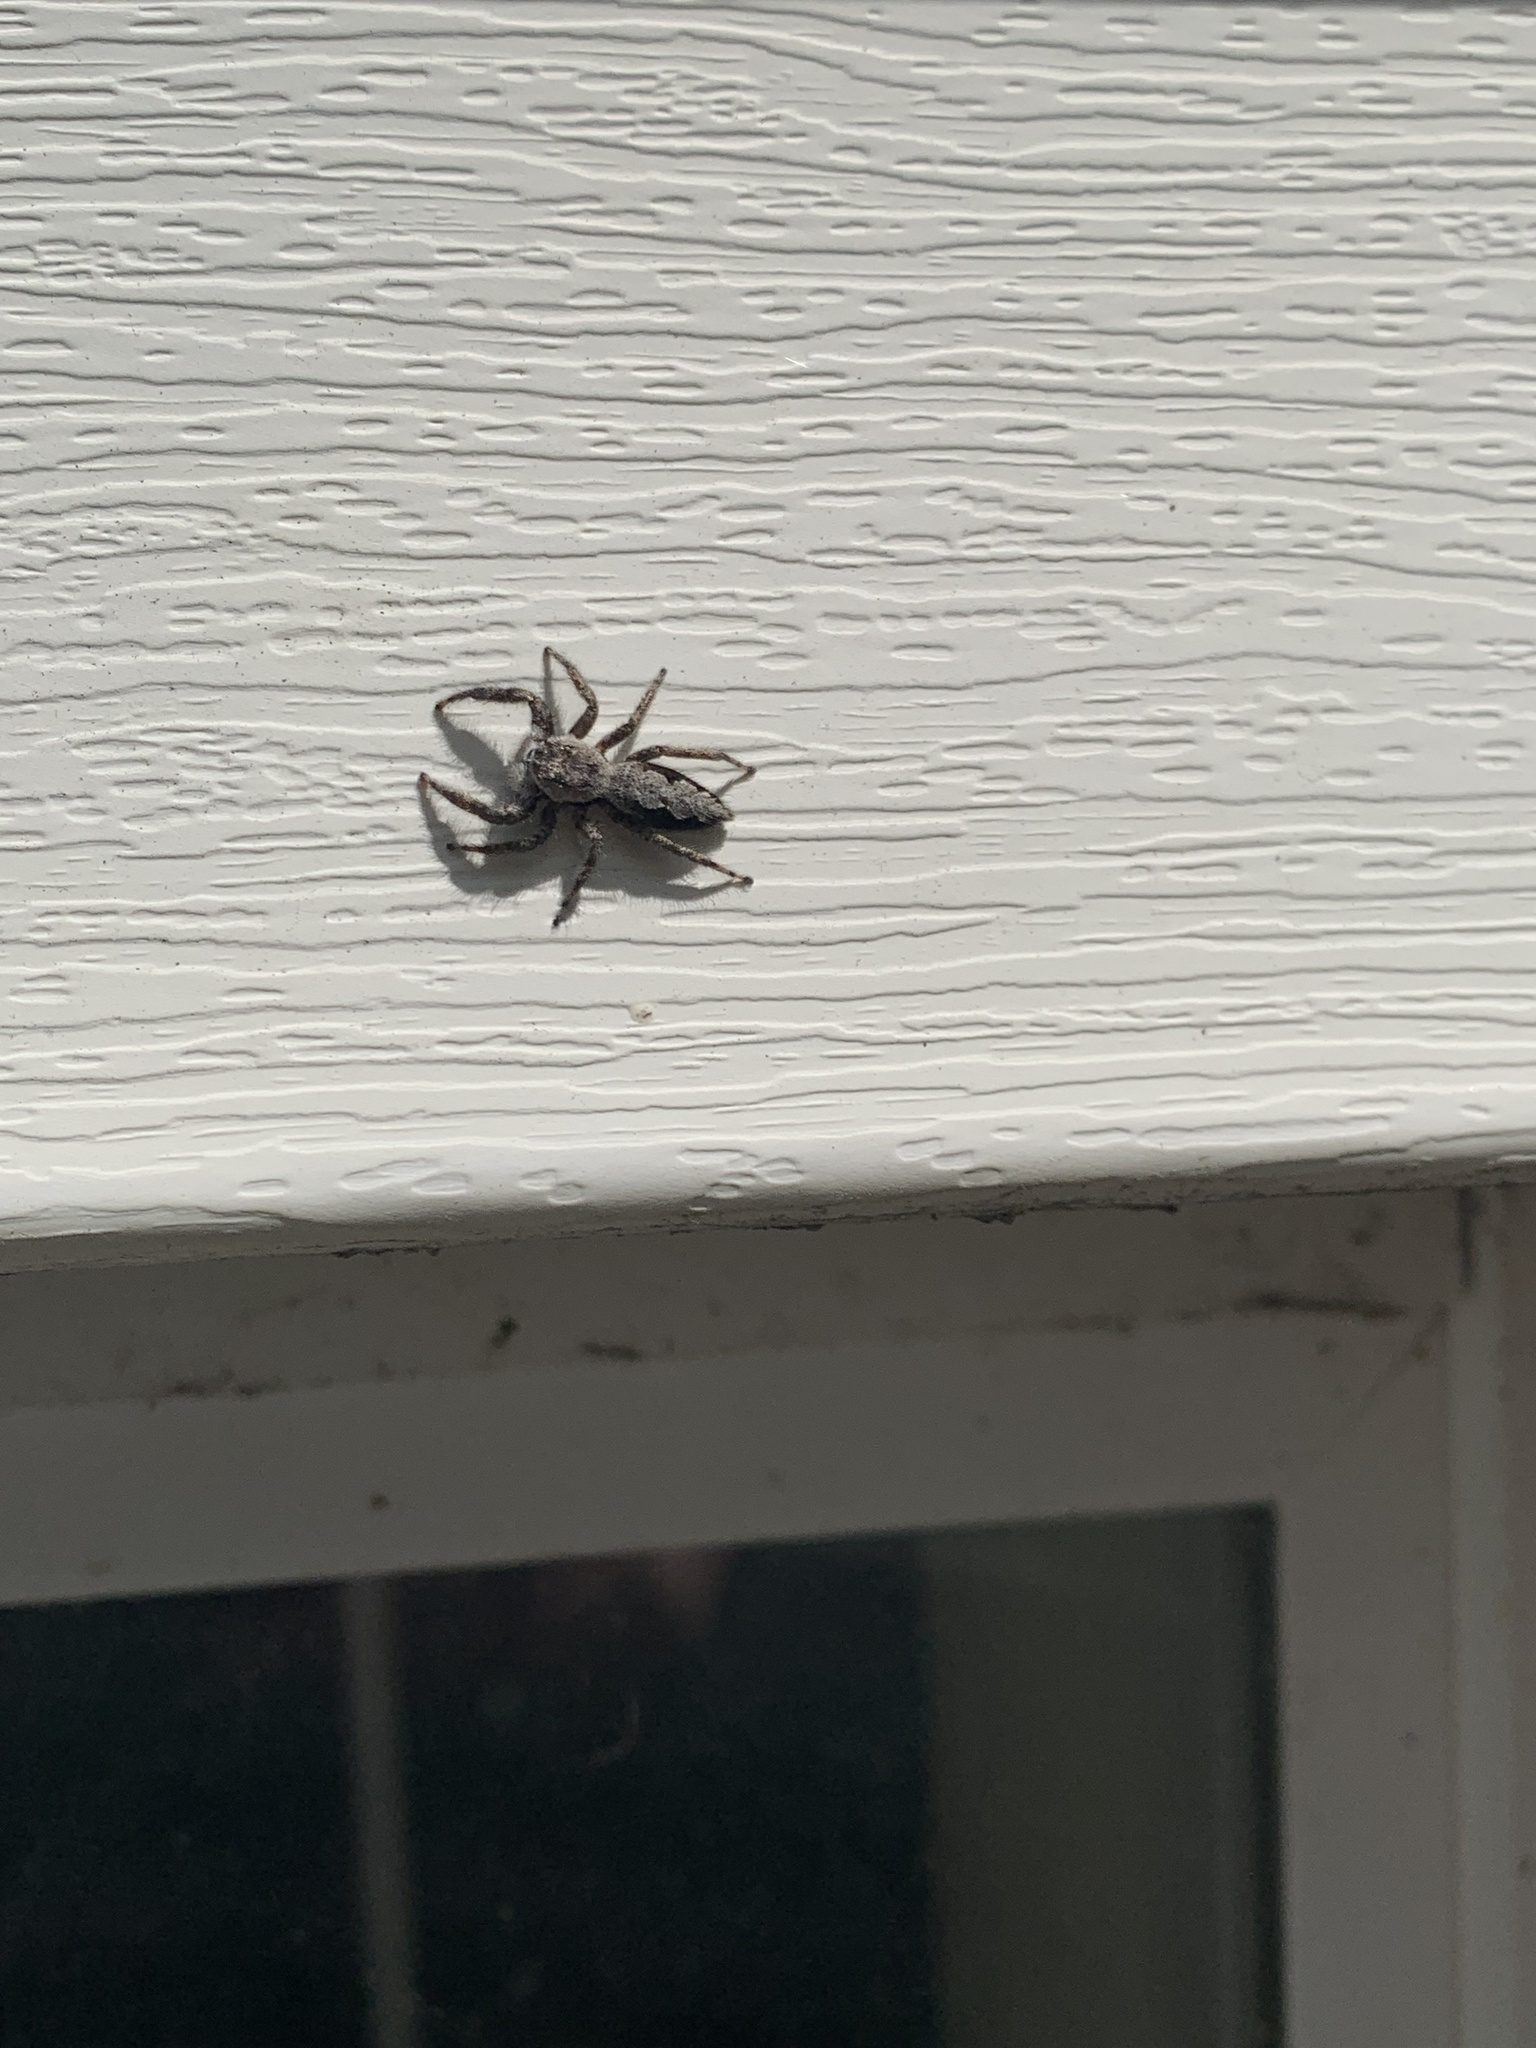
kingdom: Animalia
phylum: Arthropoda
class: Arachnida
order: Araneae
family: Salticidae
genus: Platycryptus
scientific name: Platycryptus undatus
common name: Tan jumping spider
